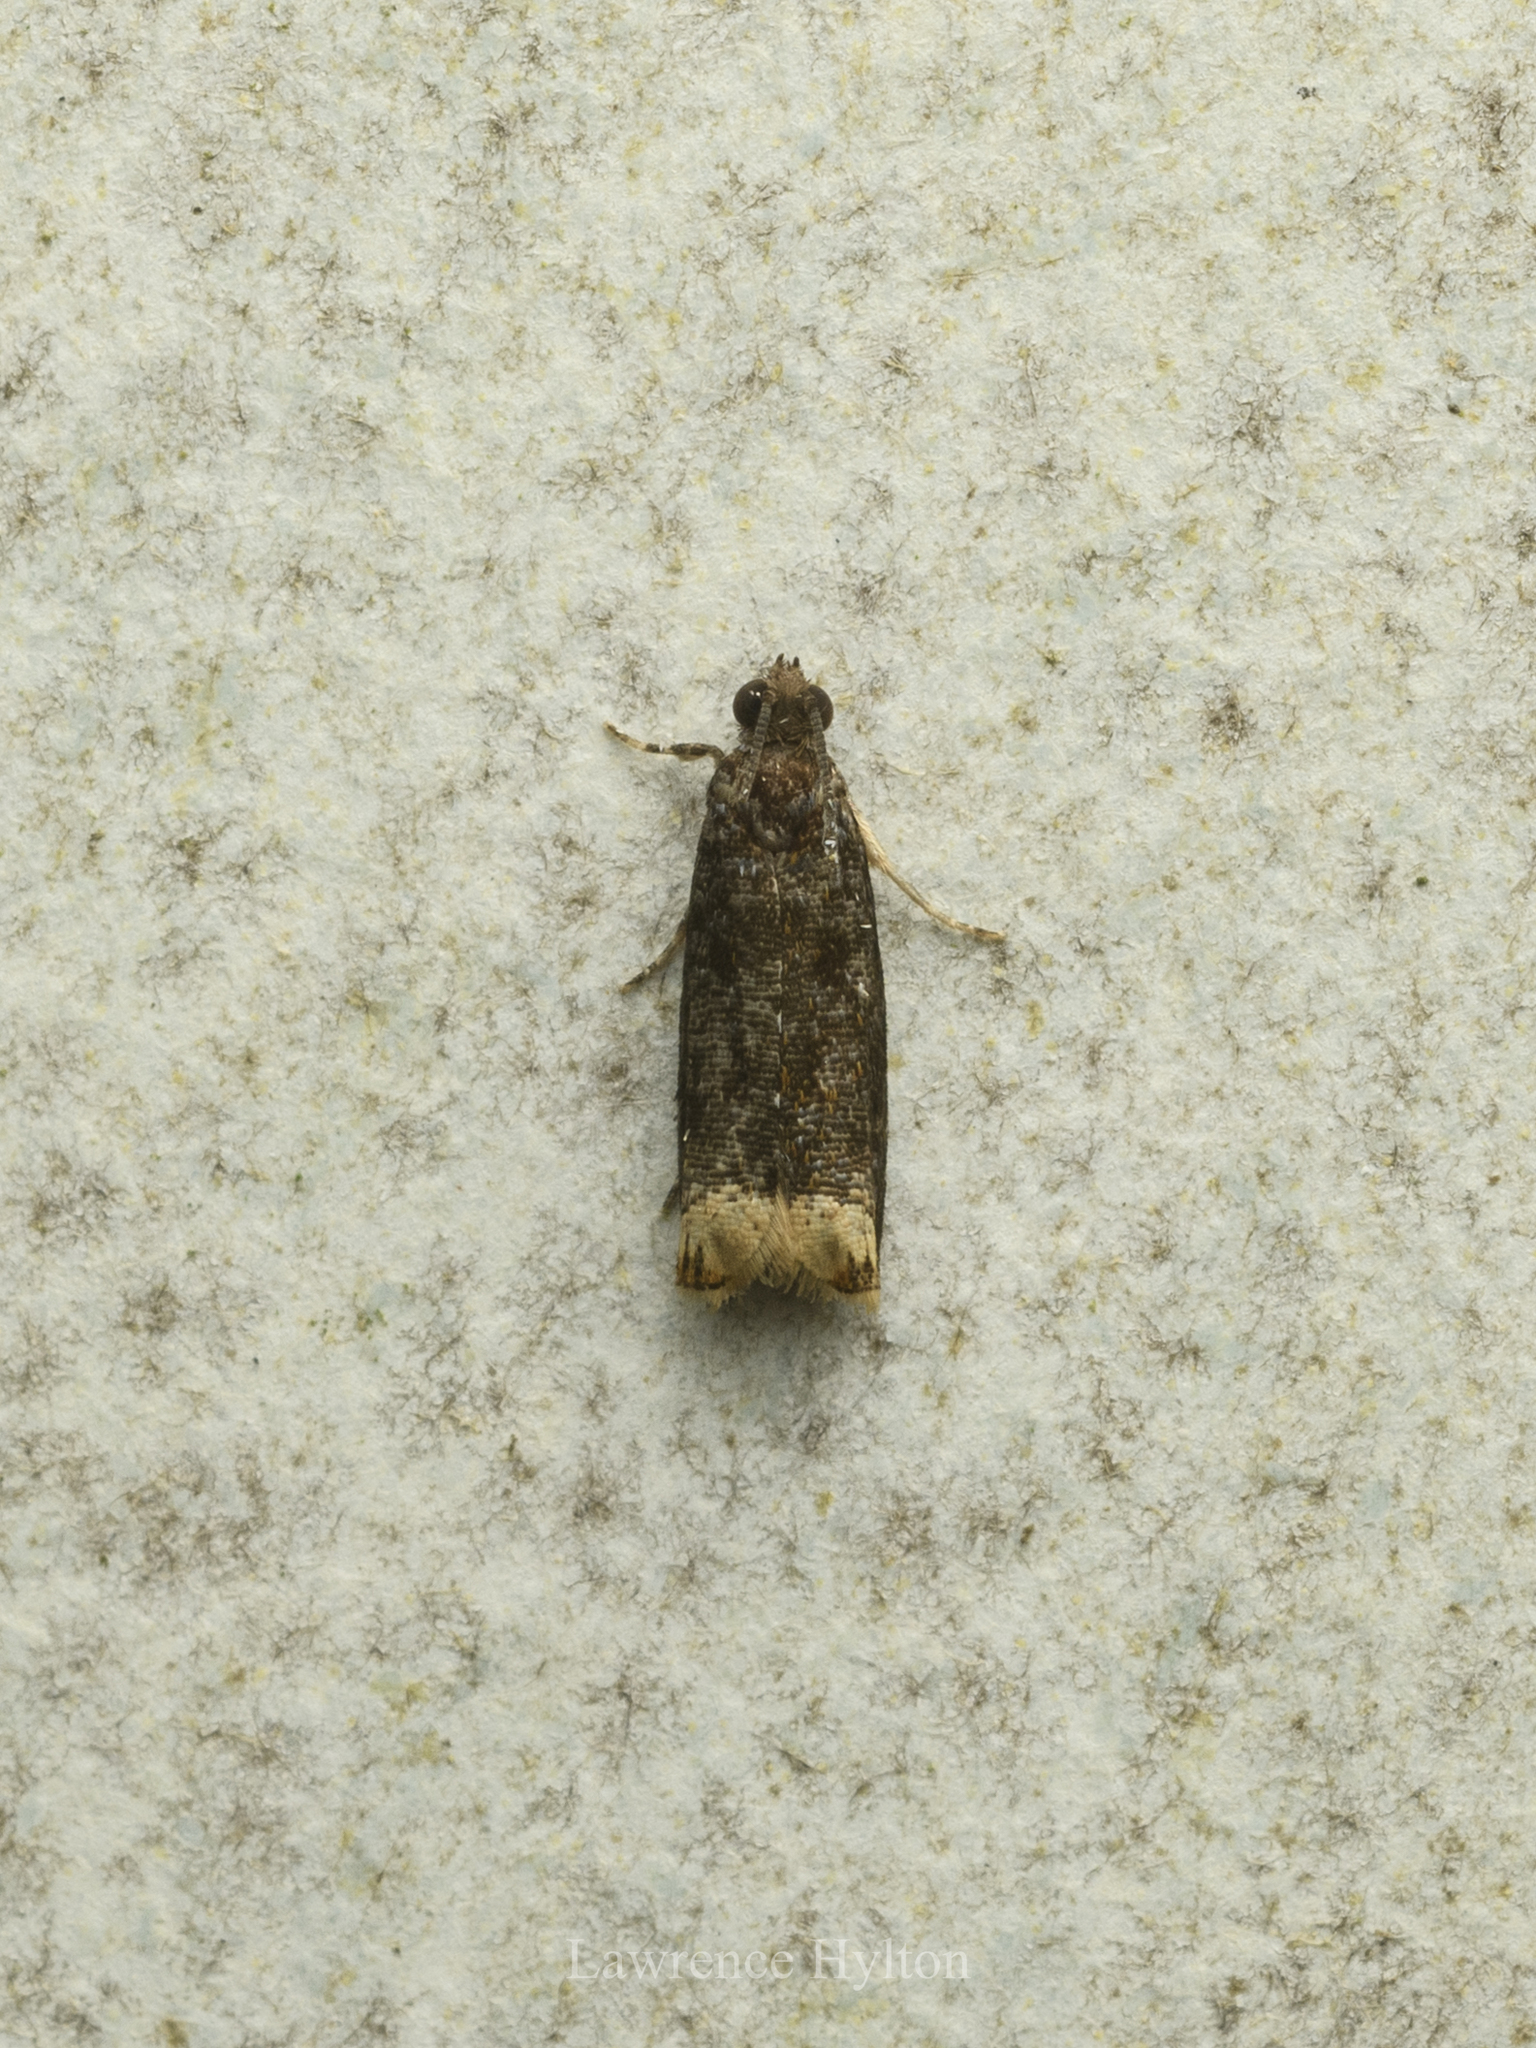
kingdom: Animalia
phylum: Arthropoda
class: Insecta
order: Lepidoptera
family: Tortricidae
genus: Ancylis
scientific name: Ancylis selenana
